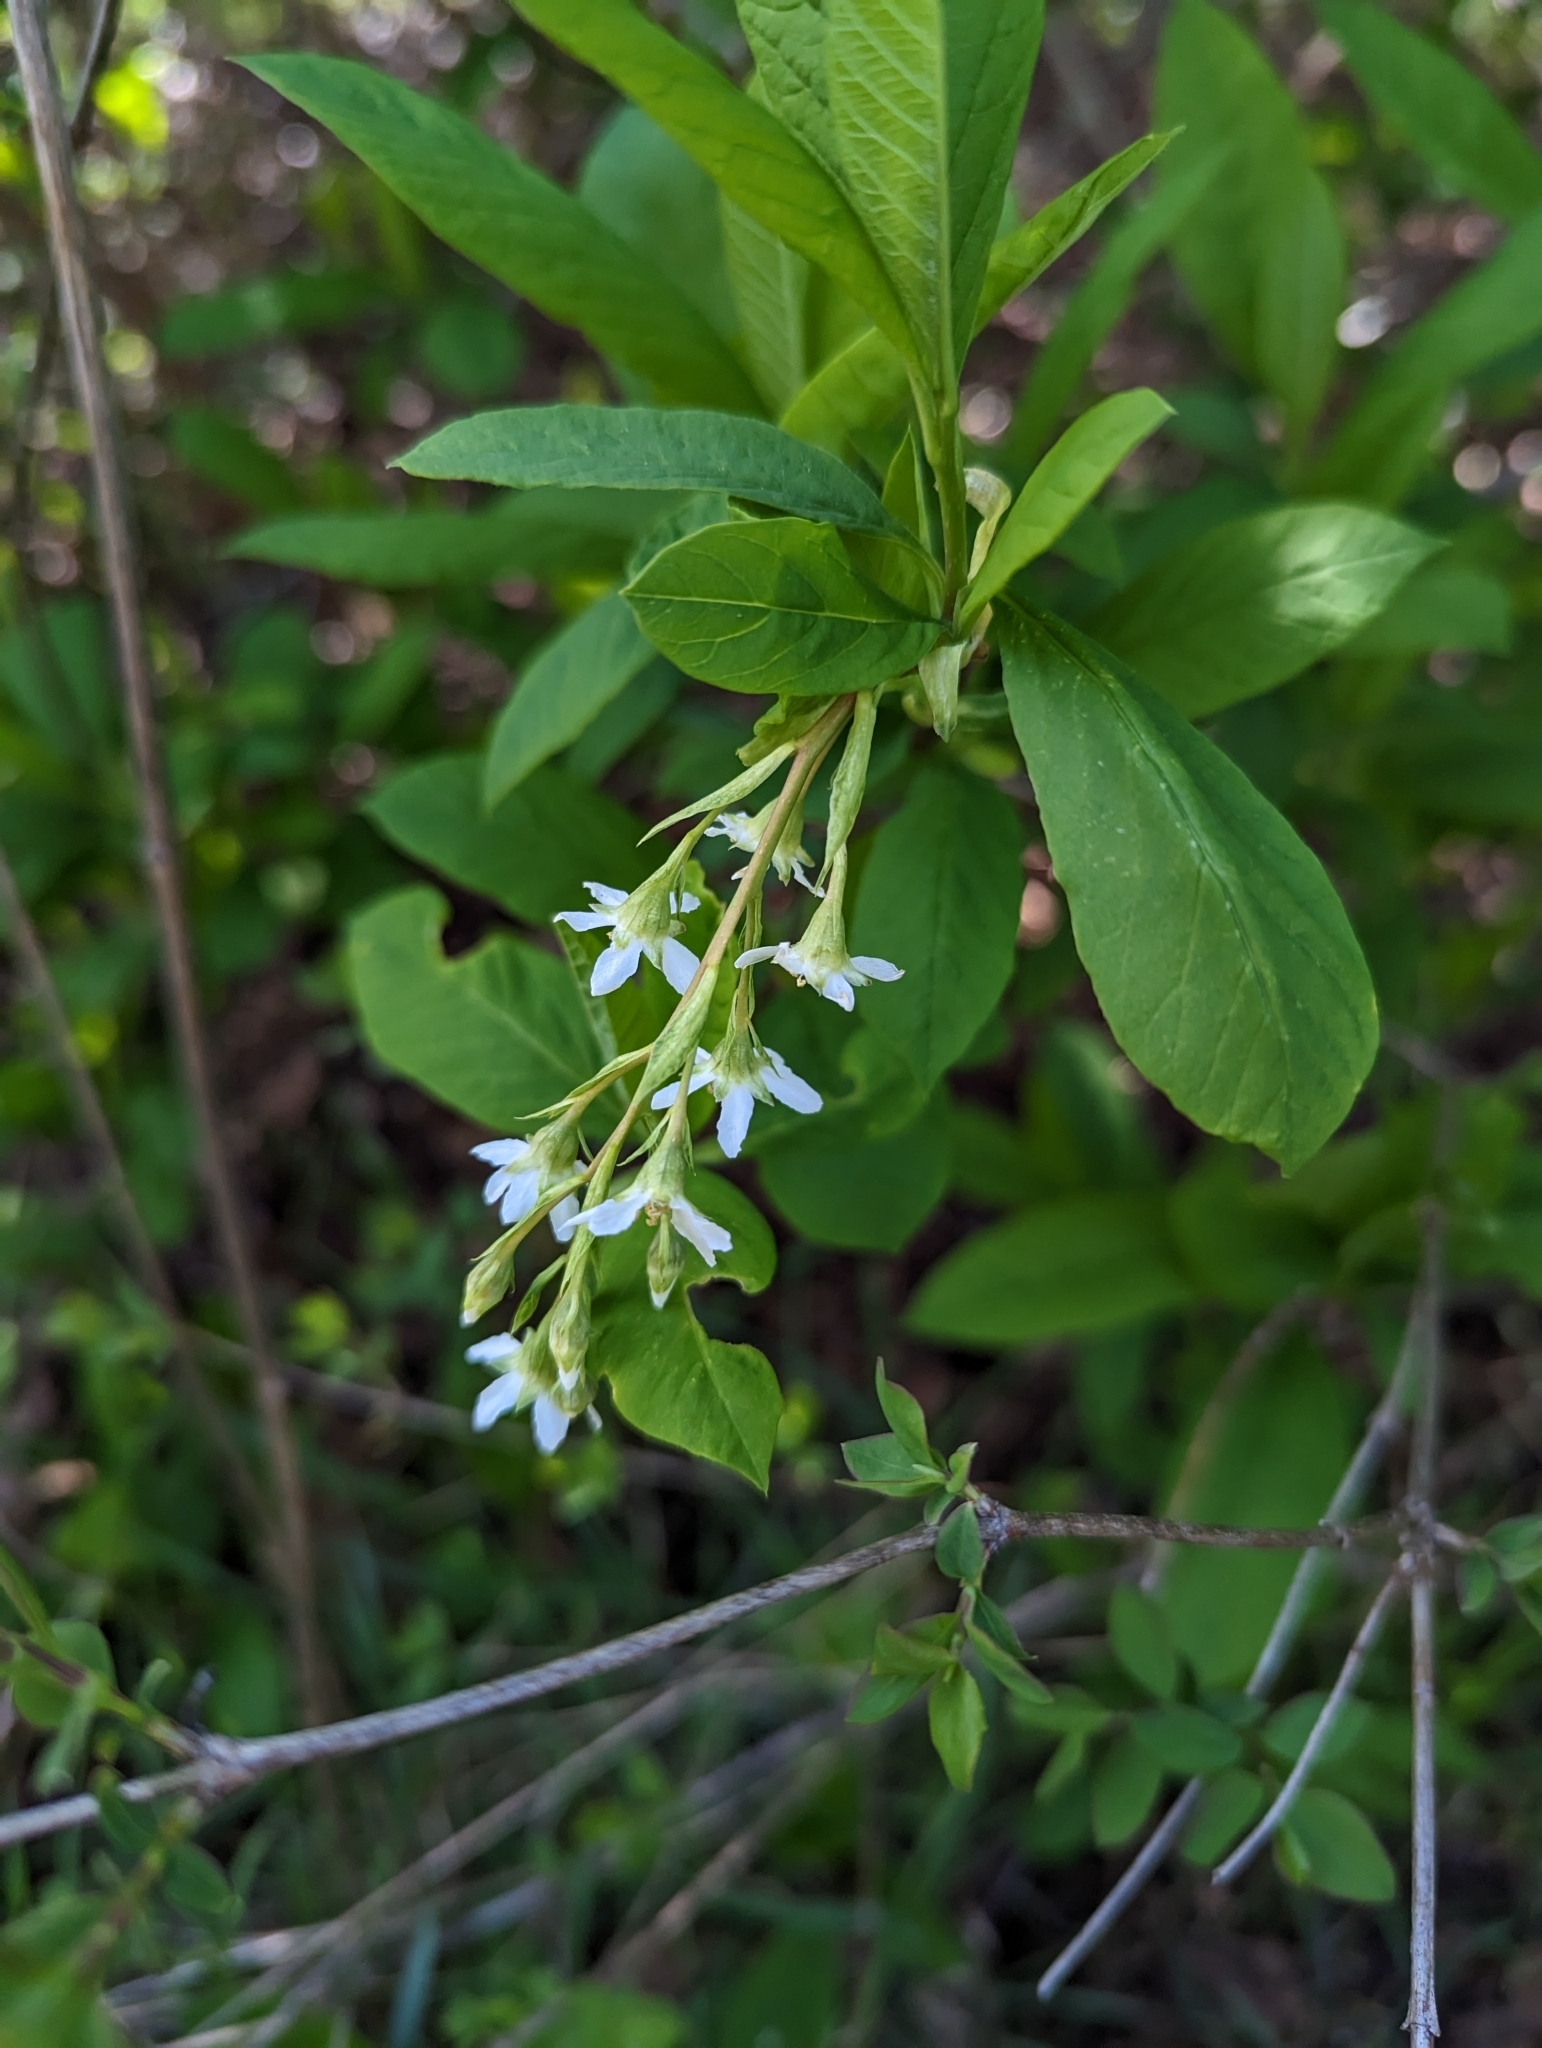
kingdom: Plantae
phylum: Tracheophyta
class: Magnoliopsida
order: Rosales
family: Rosaceae
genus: Oemleria
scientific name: Oemleria cerasiformis
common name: Osoberry
